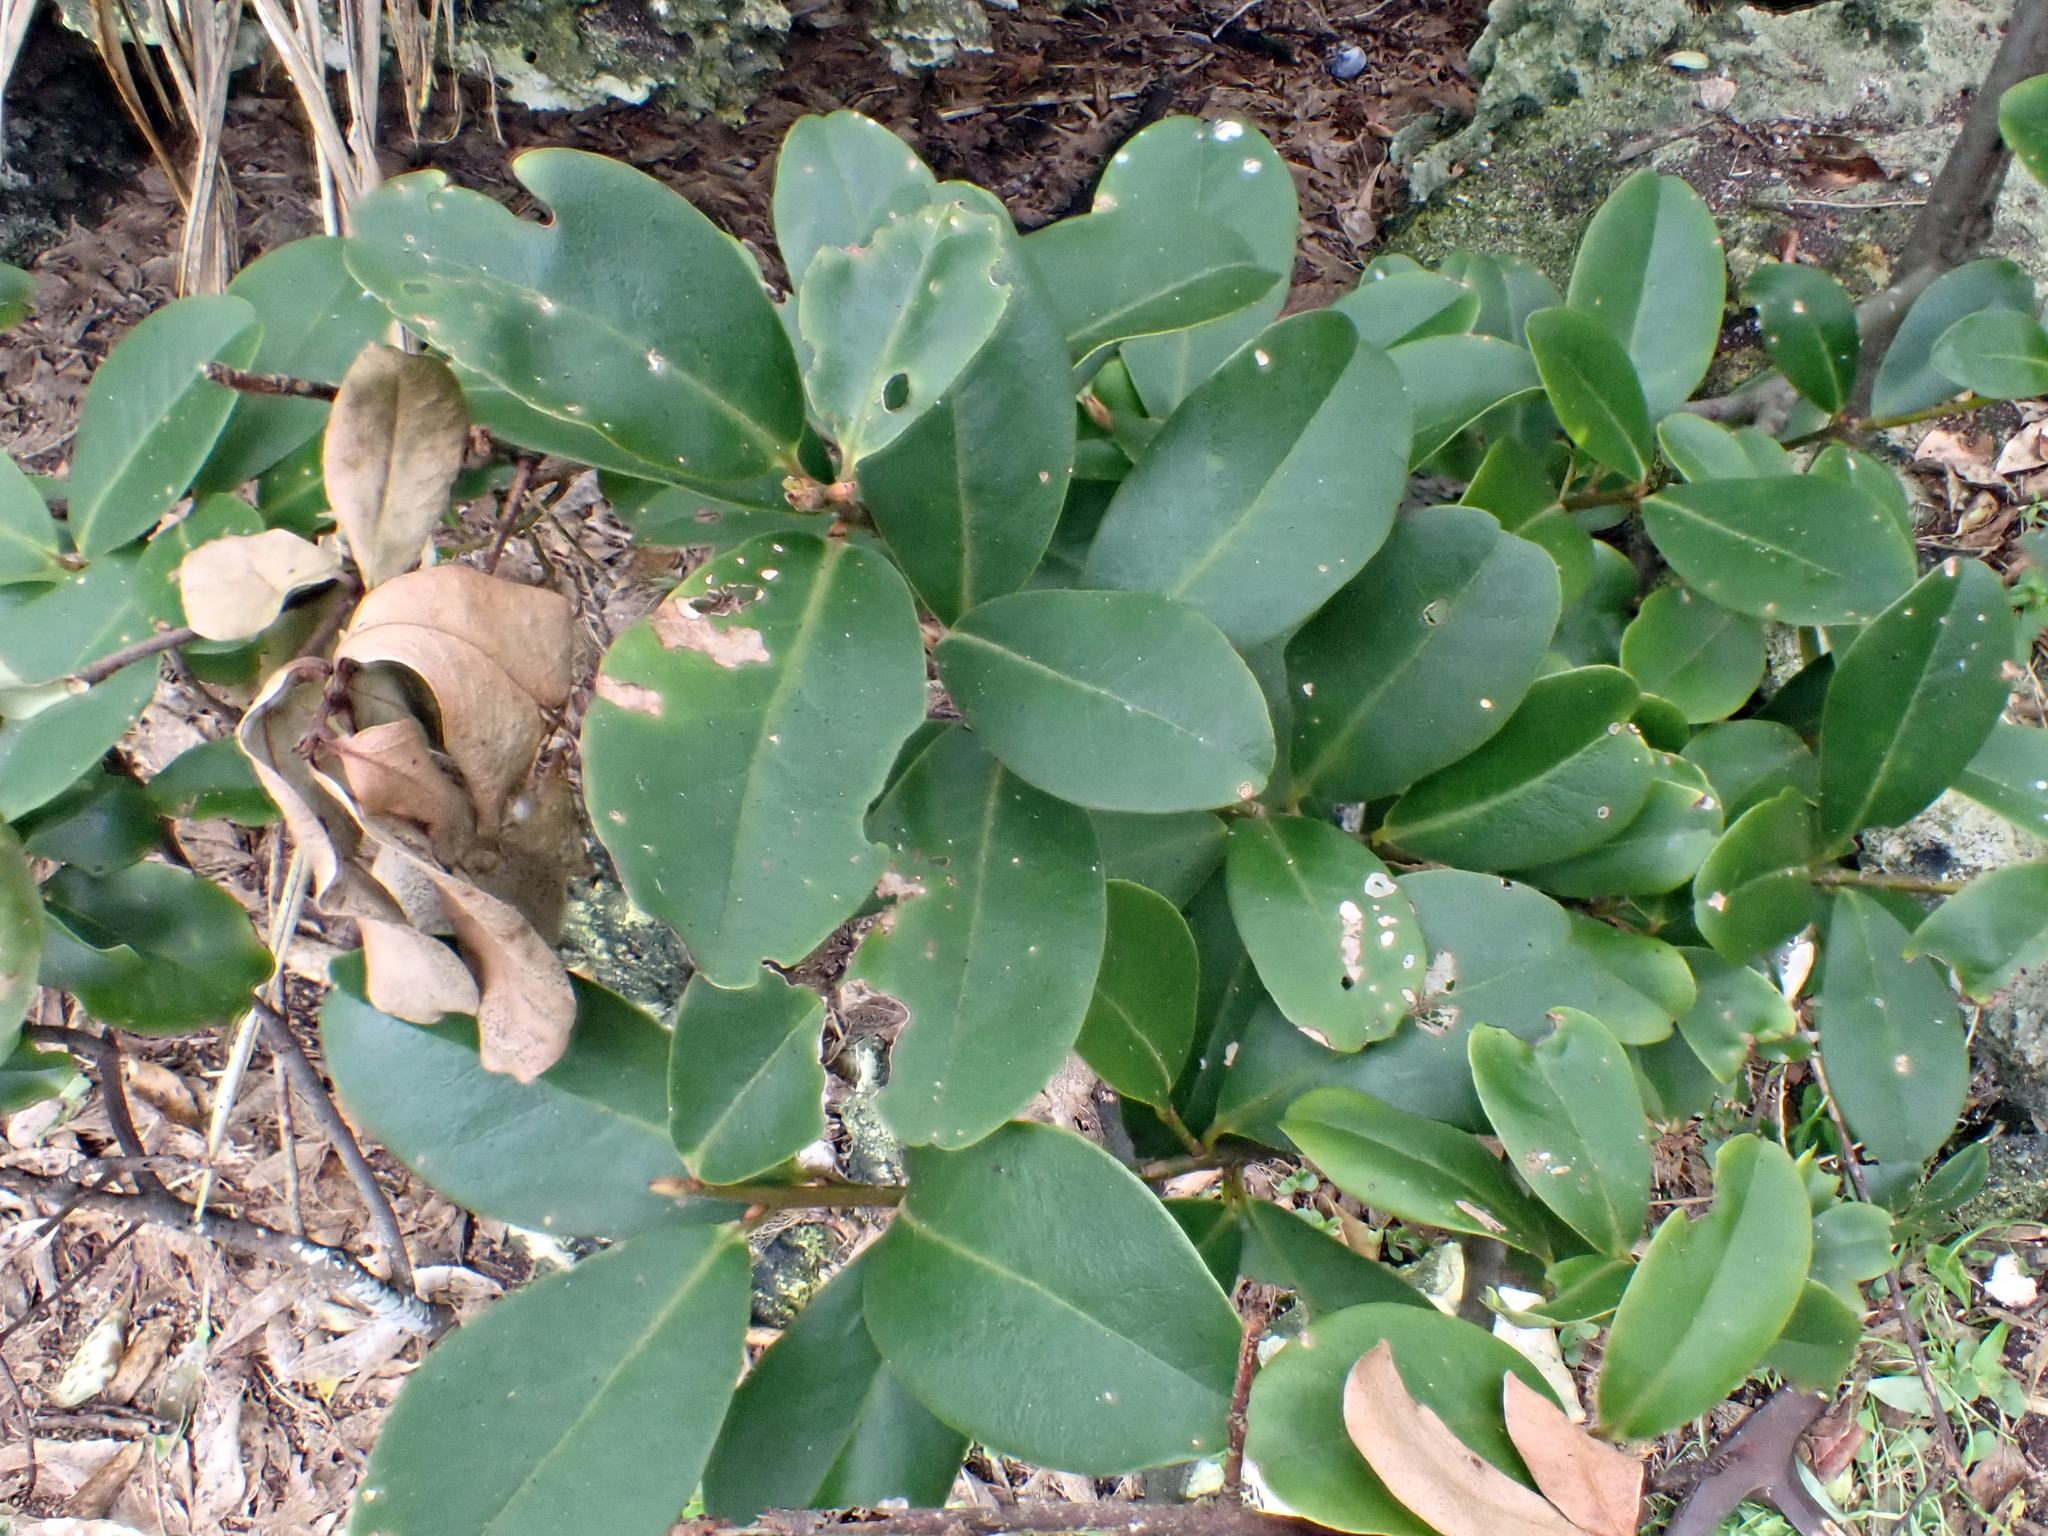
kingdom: Plantae
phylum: Tracheophyta
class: Magnoliopsida
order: Ericales
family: Primulaceae
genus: Myrsine
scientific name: Myrsine chathamica
